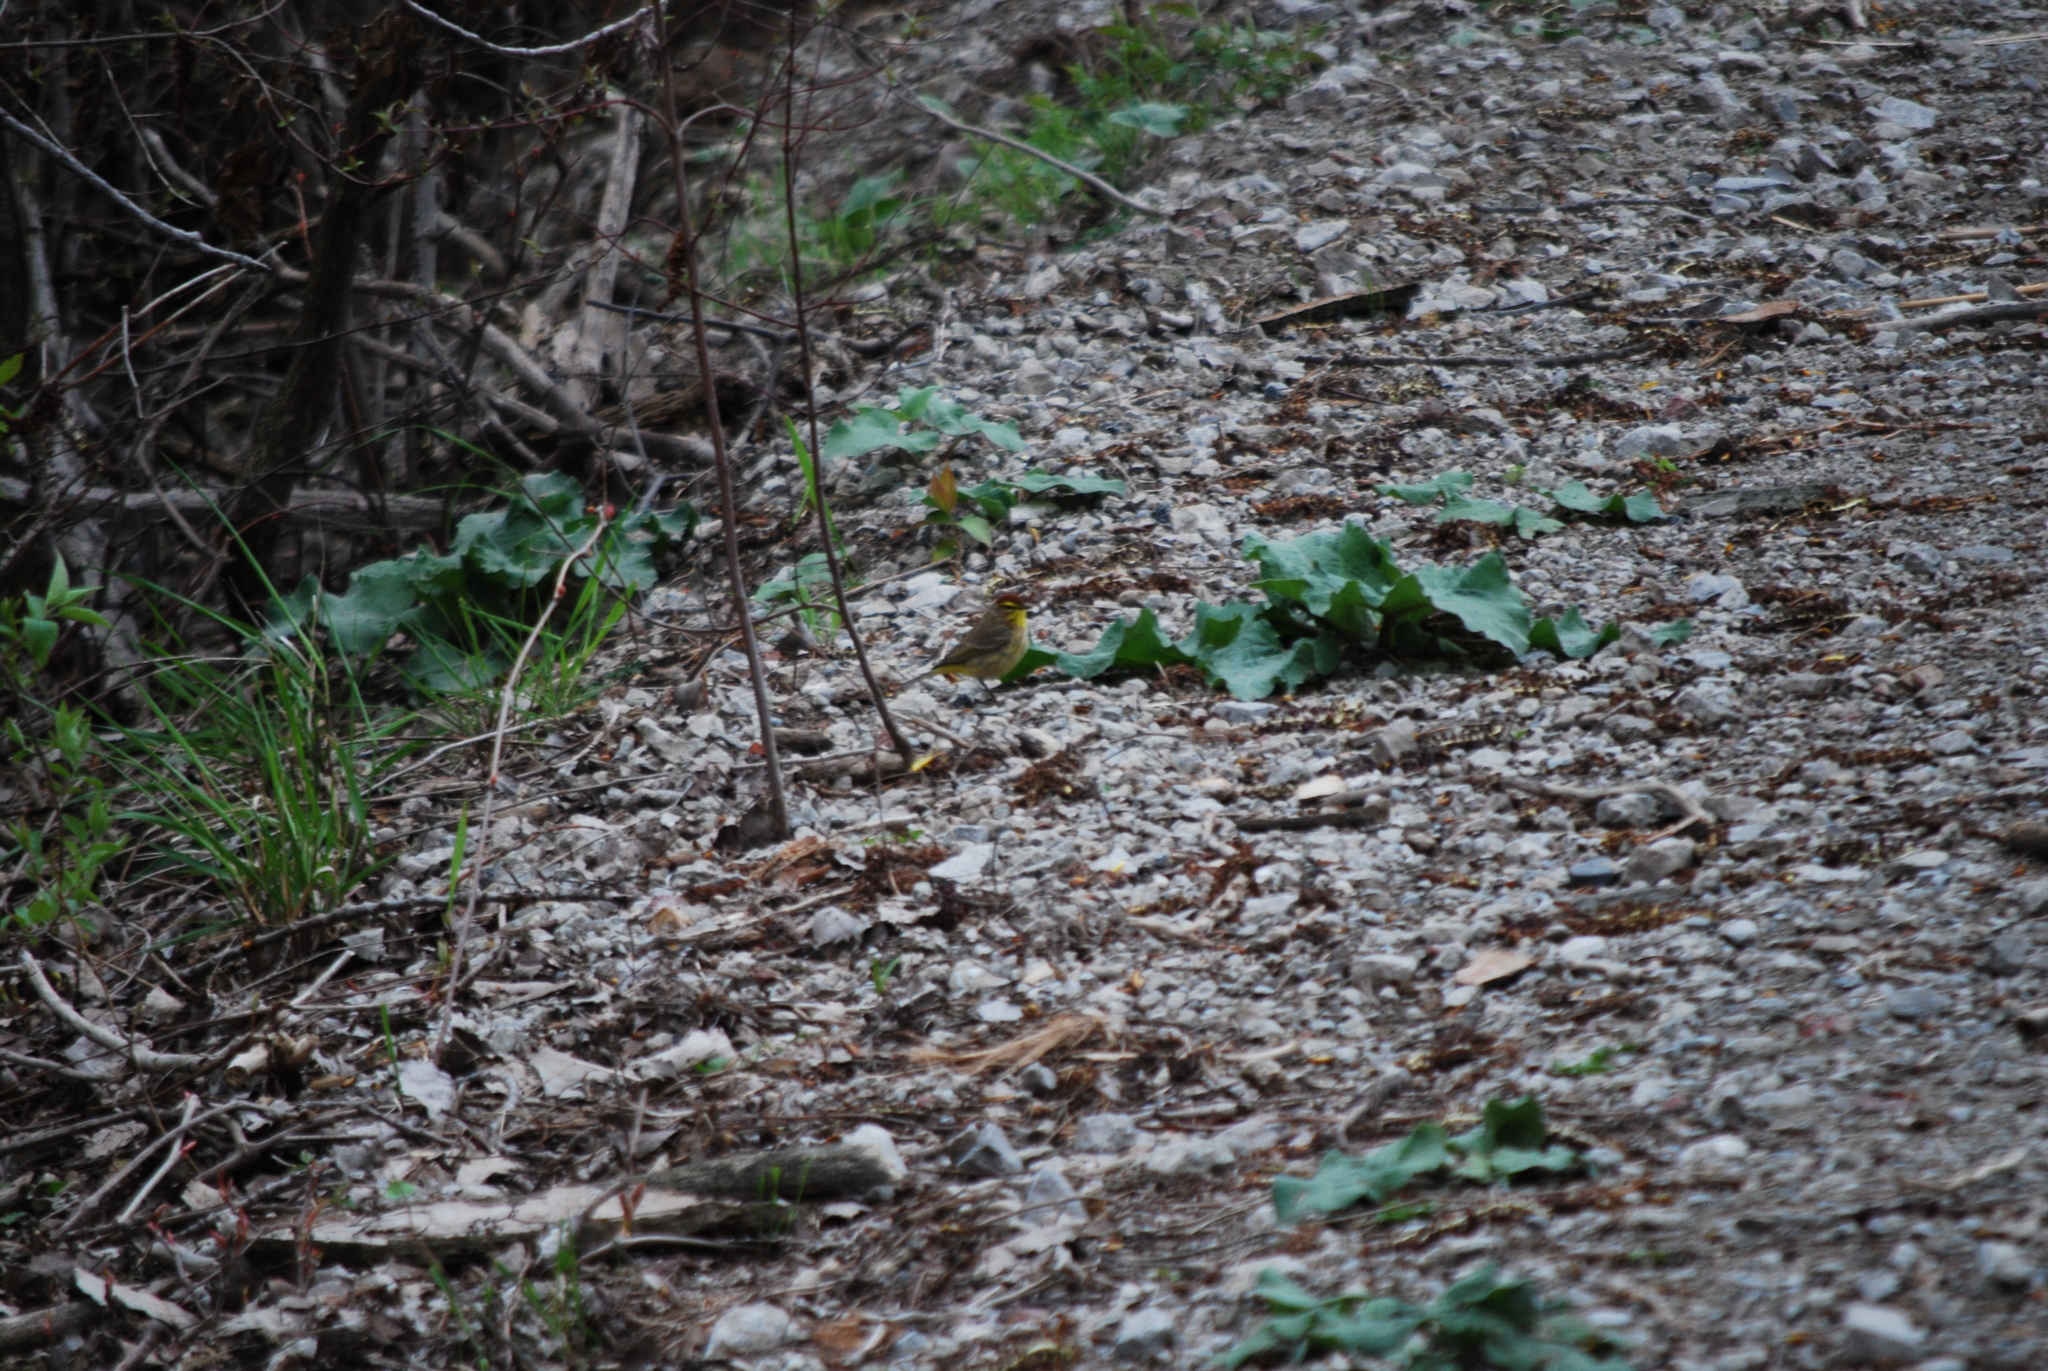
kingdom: Animalia
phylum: Chordata
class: Aves
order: Passeriformes
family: Parulidae
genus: Setophaga
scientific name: Setophaga palmarum
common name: Palm warbler
